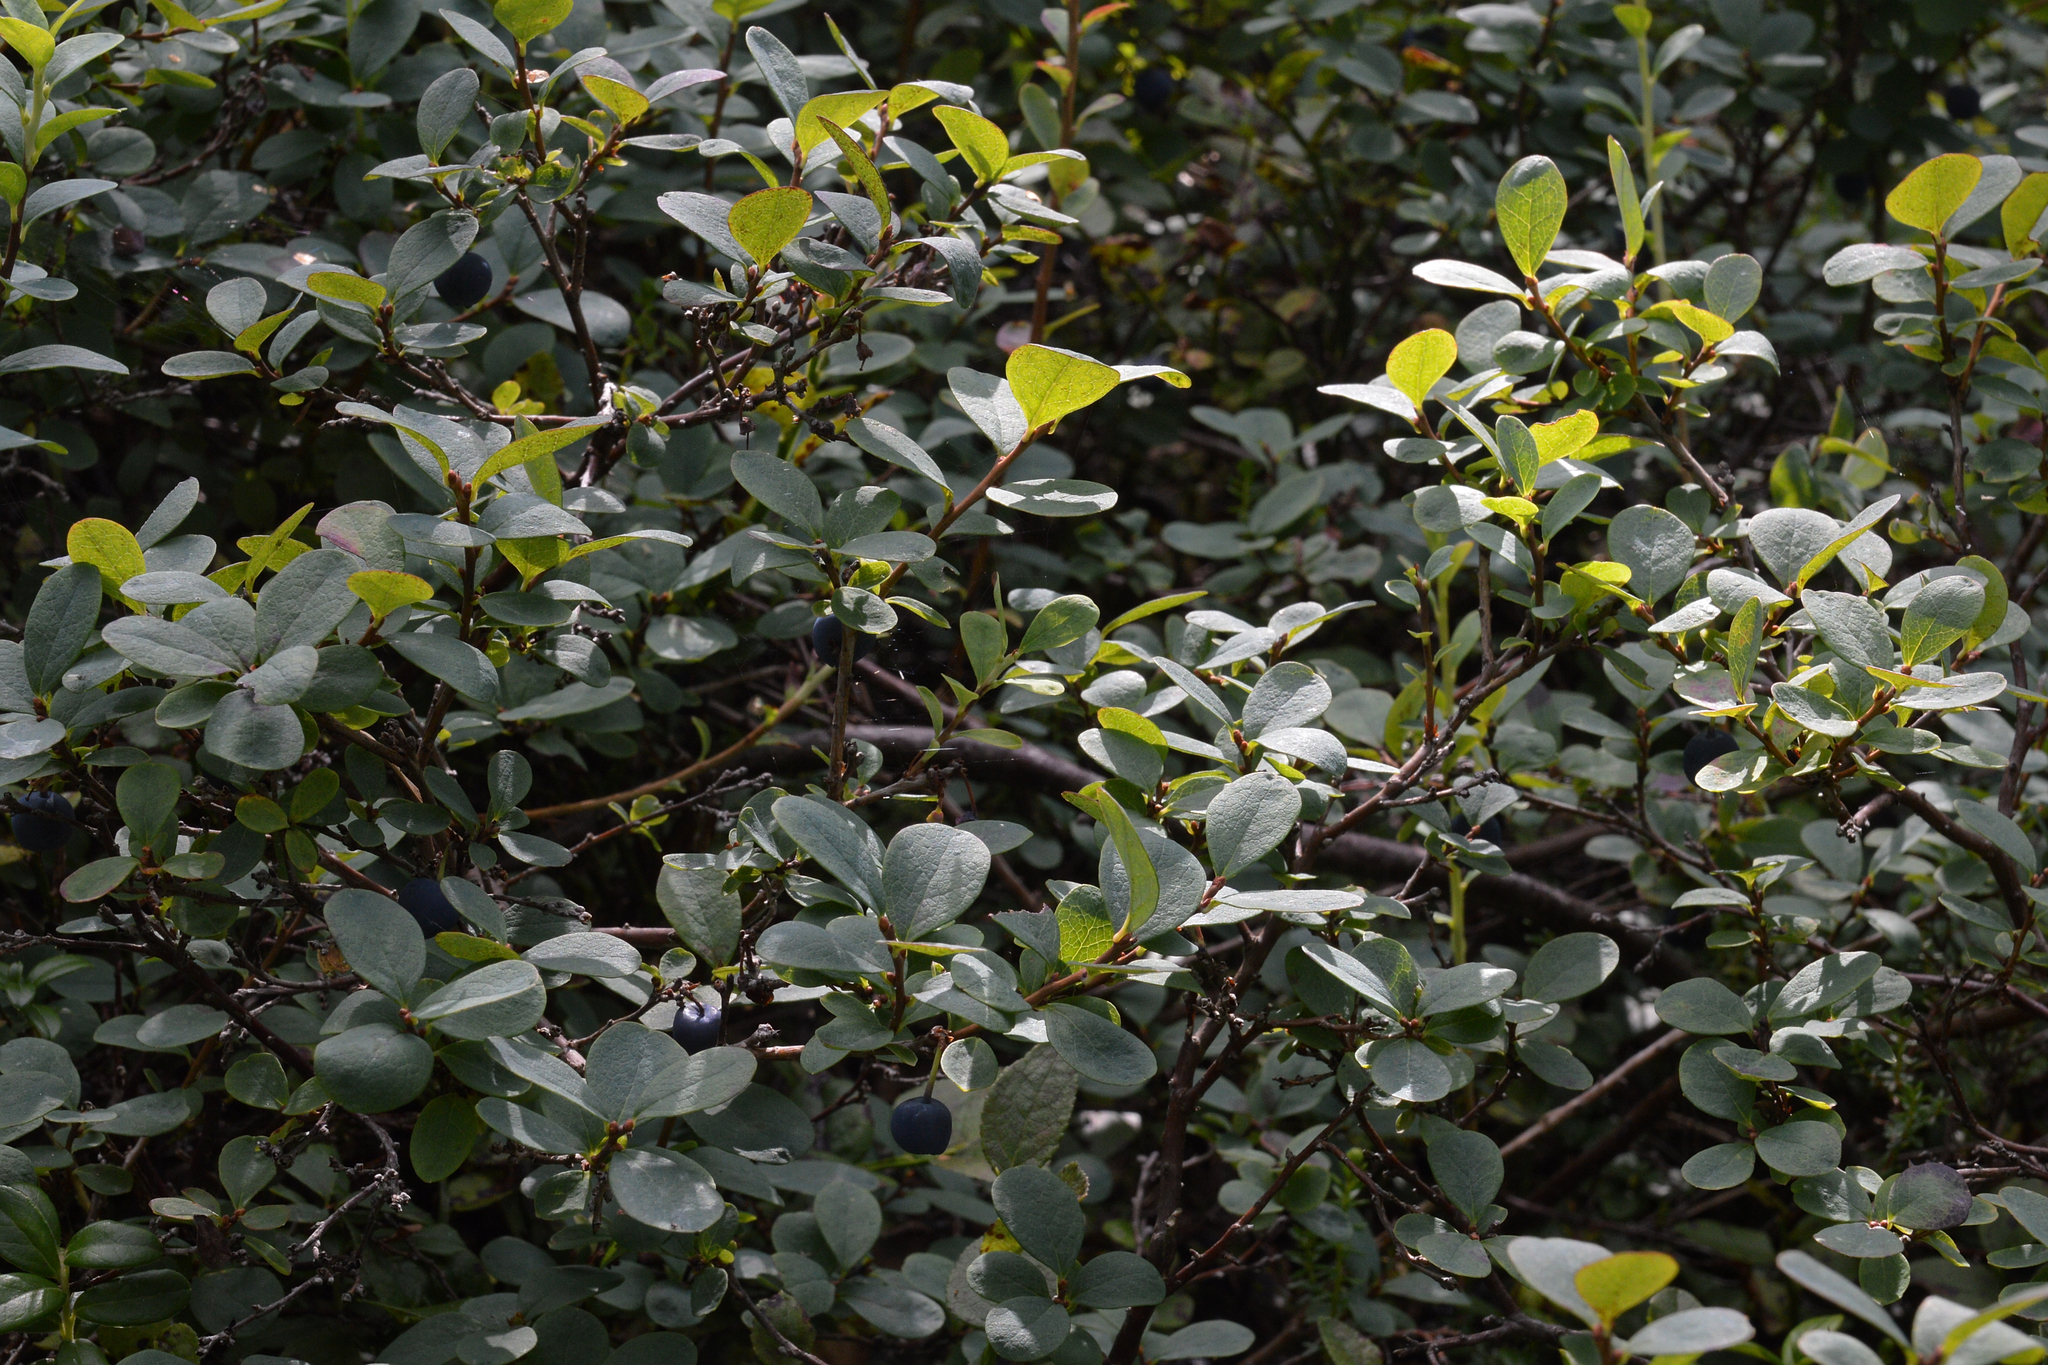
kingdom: Plantae
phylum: Tracheophyta
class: Magnoliopsida
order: Ericales
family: Ericaceae
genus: Vaccinium
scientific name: Vaccinium uliginosum
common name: Bog bilberry
